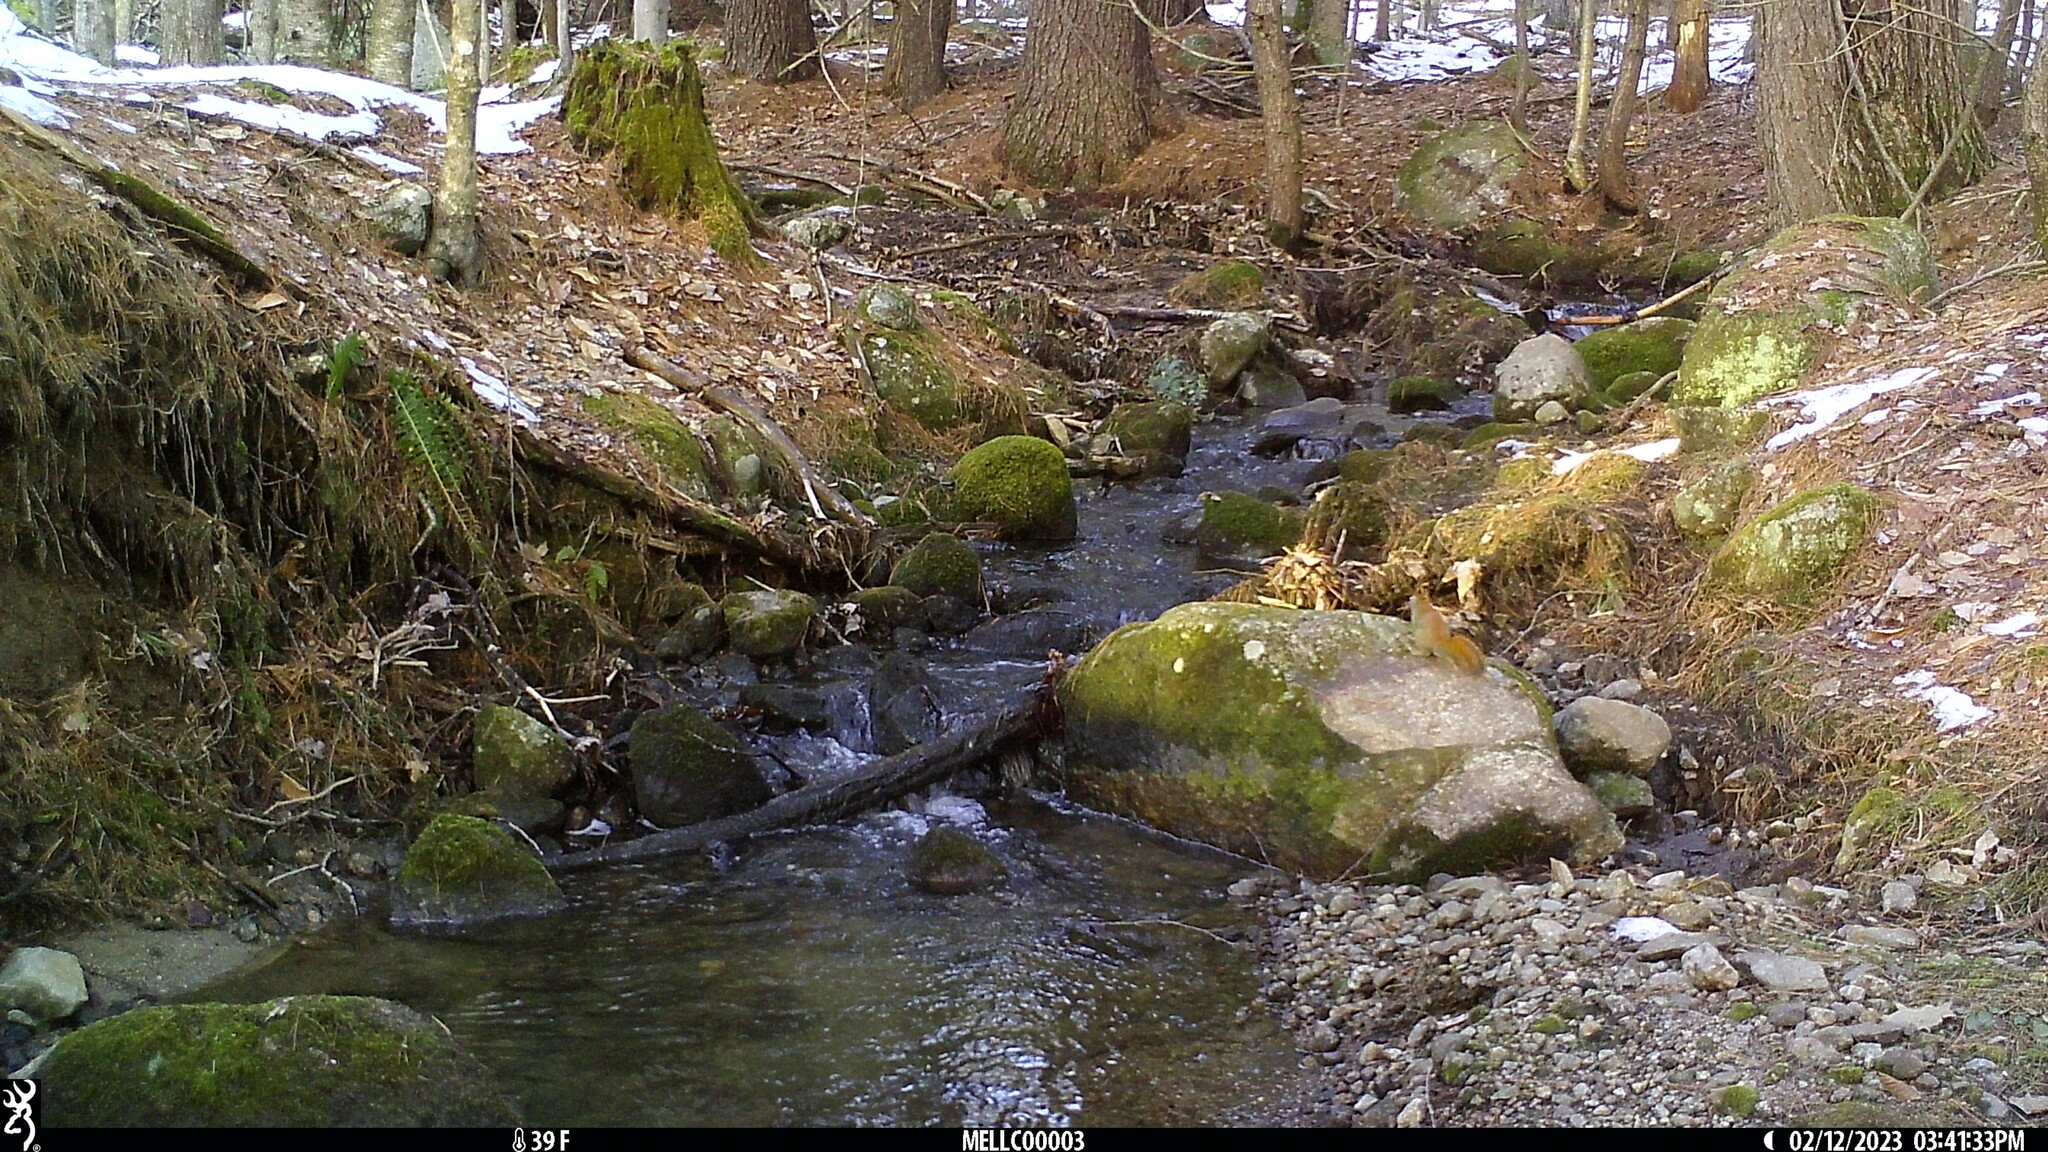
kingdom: Animalia
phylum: Chordata
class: Mammalia
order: Rodentia
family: Sciuridae
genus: Tamiasciurus
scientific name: Tamiasciurus hudsonicus
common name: Red squirrel
